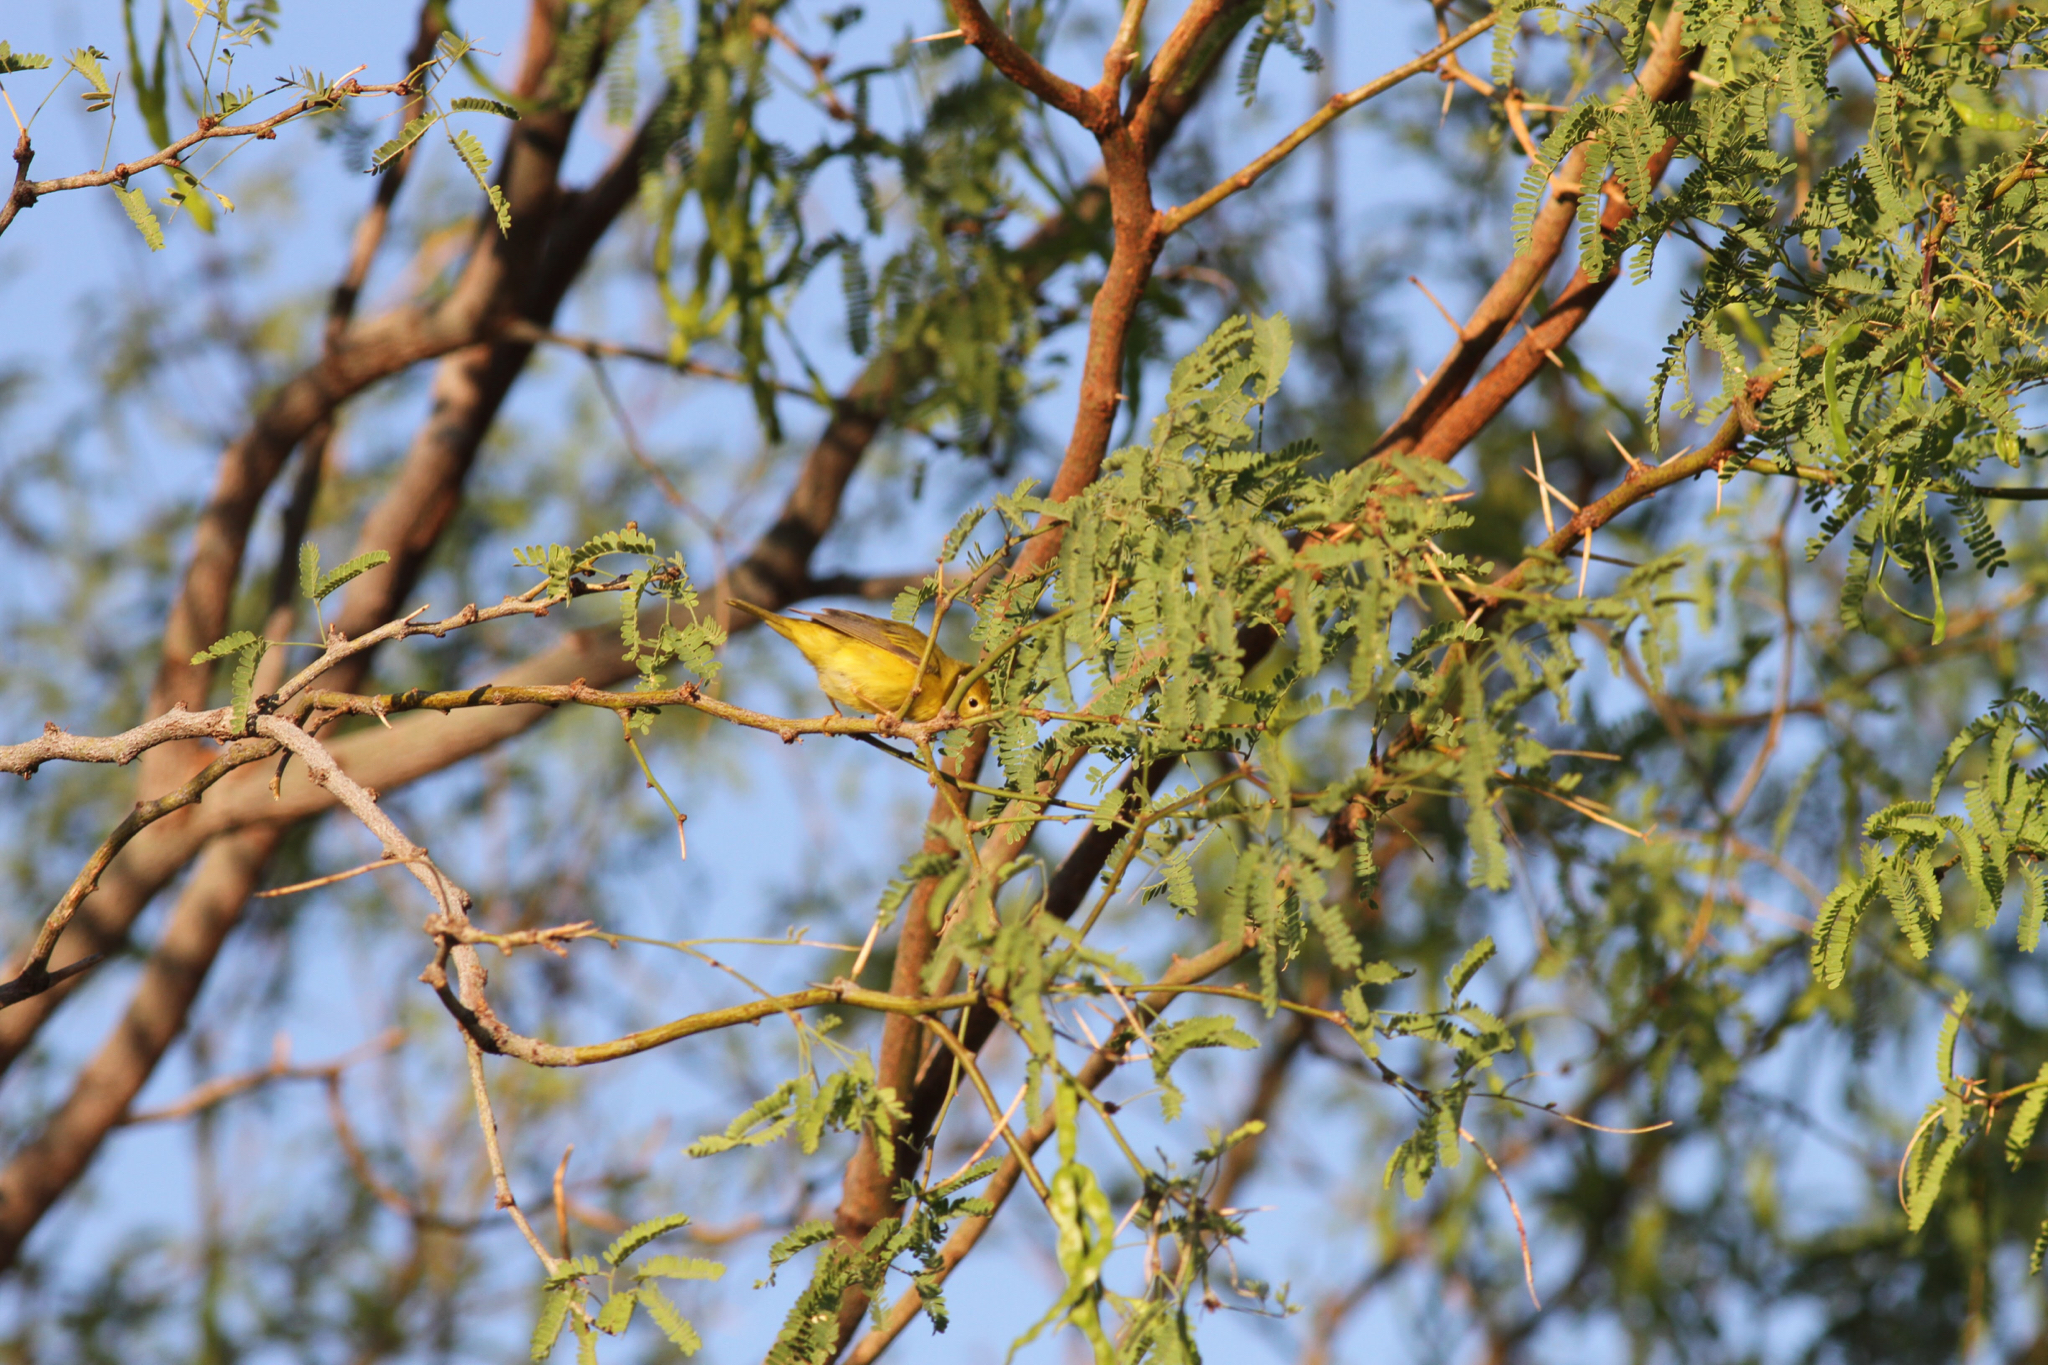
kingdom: Animalia
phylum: Chordata
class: Aves
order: Passeriformes
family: Parulidae
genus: Setophaga
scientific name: Setophaga petechia
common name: Yellow warbler
